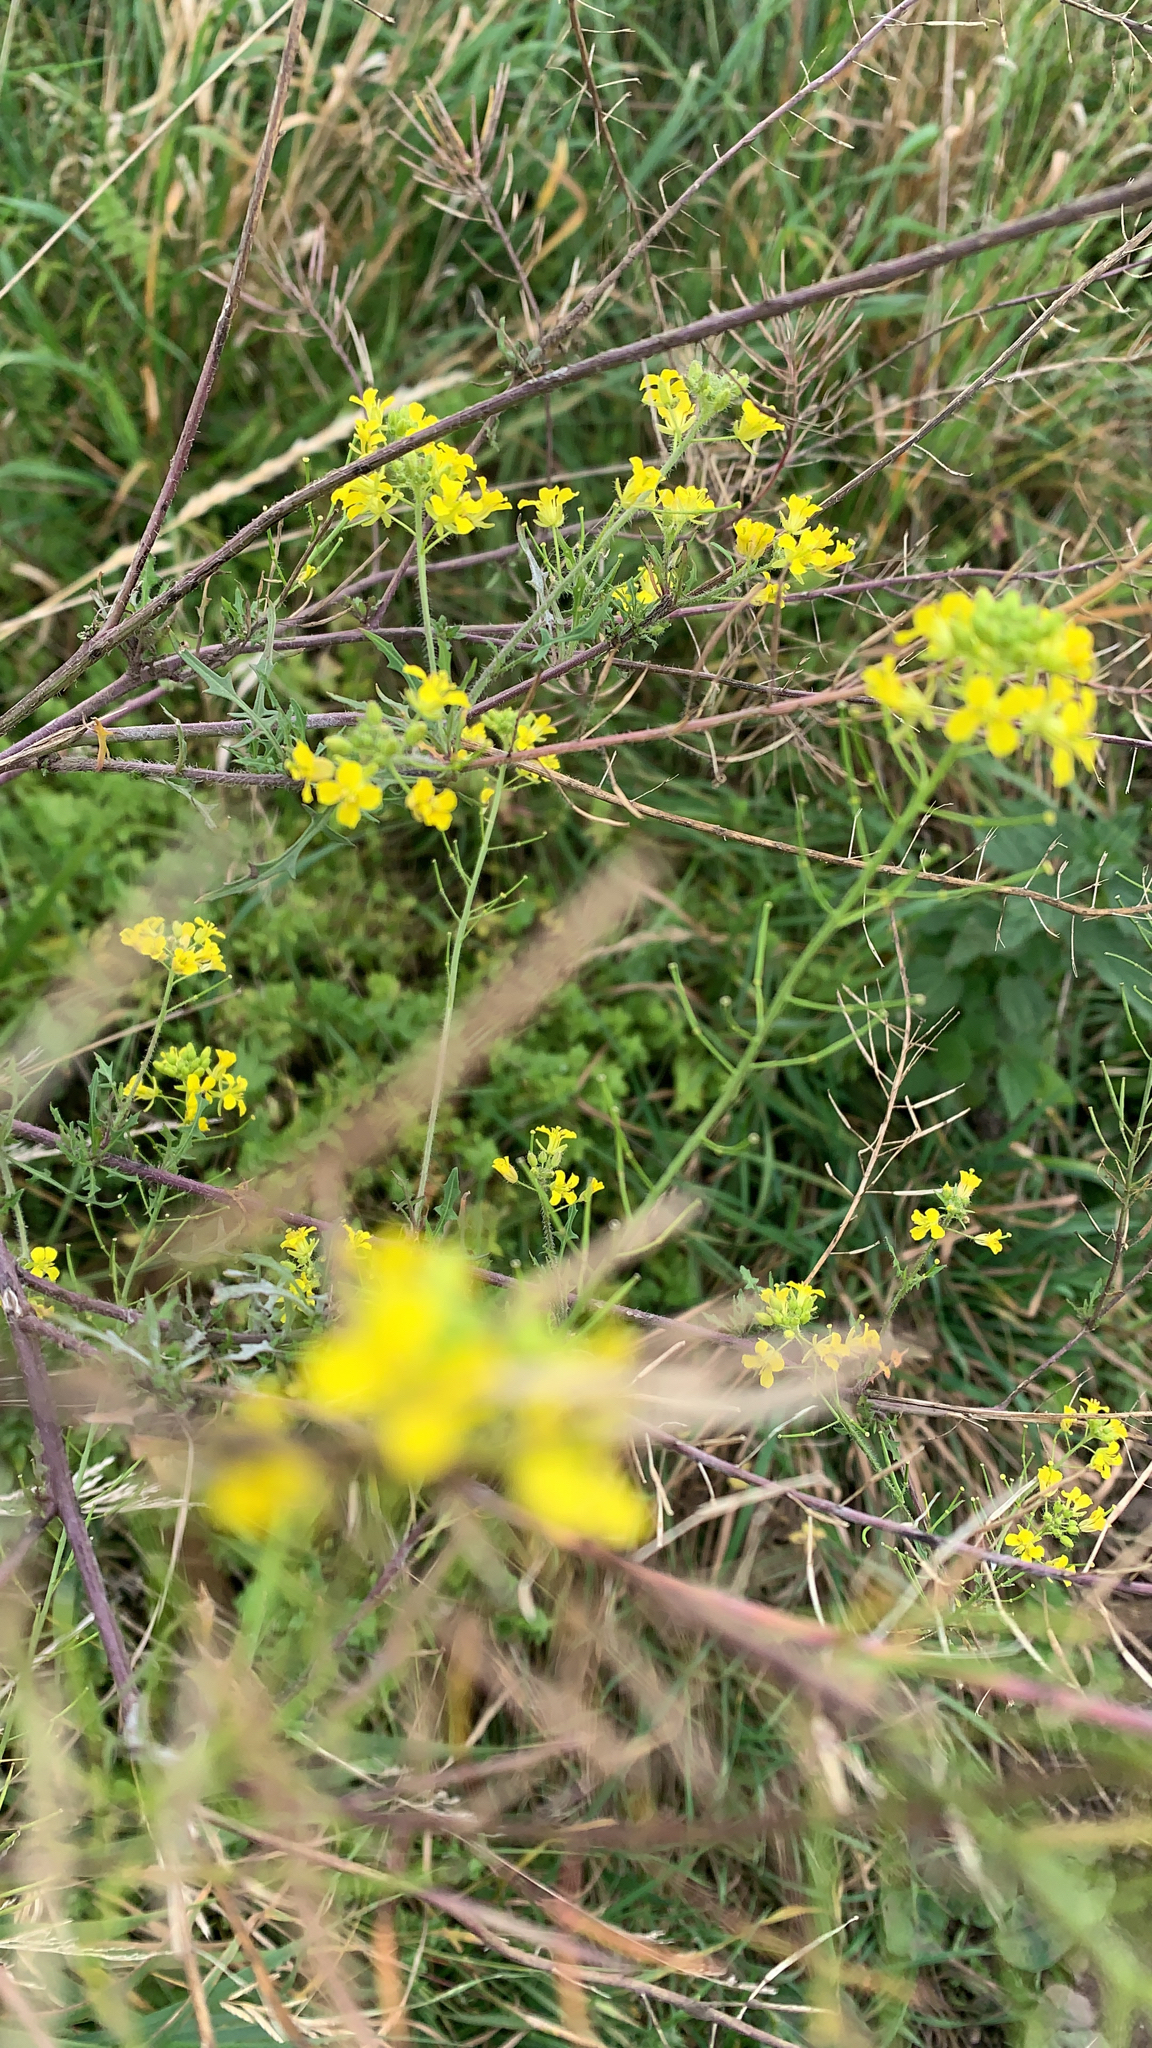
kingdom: Plantae
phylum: Tracheophyta
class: Magnoliopsida
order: Brassicales
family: Brassicaceae
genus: Sisymbrium
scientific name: Sisymbrium loeselii
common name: False london-rocket
